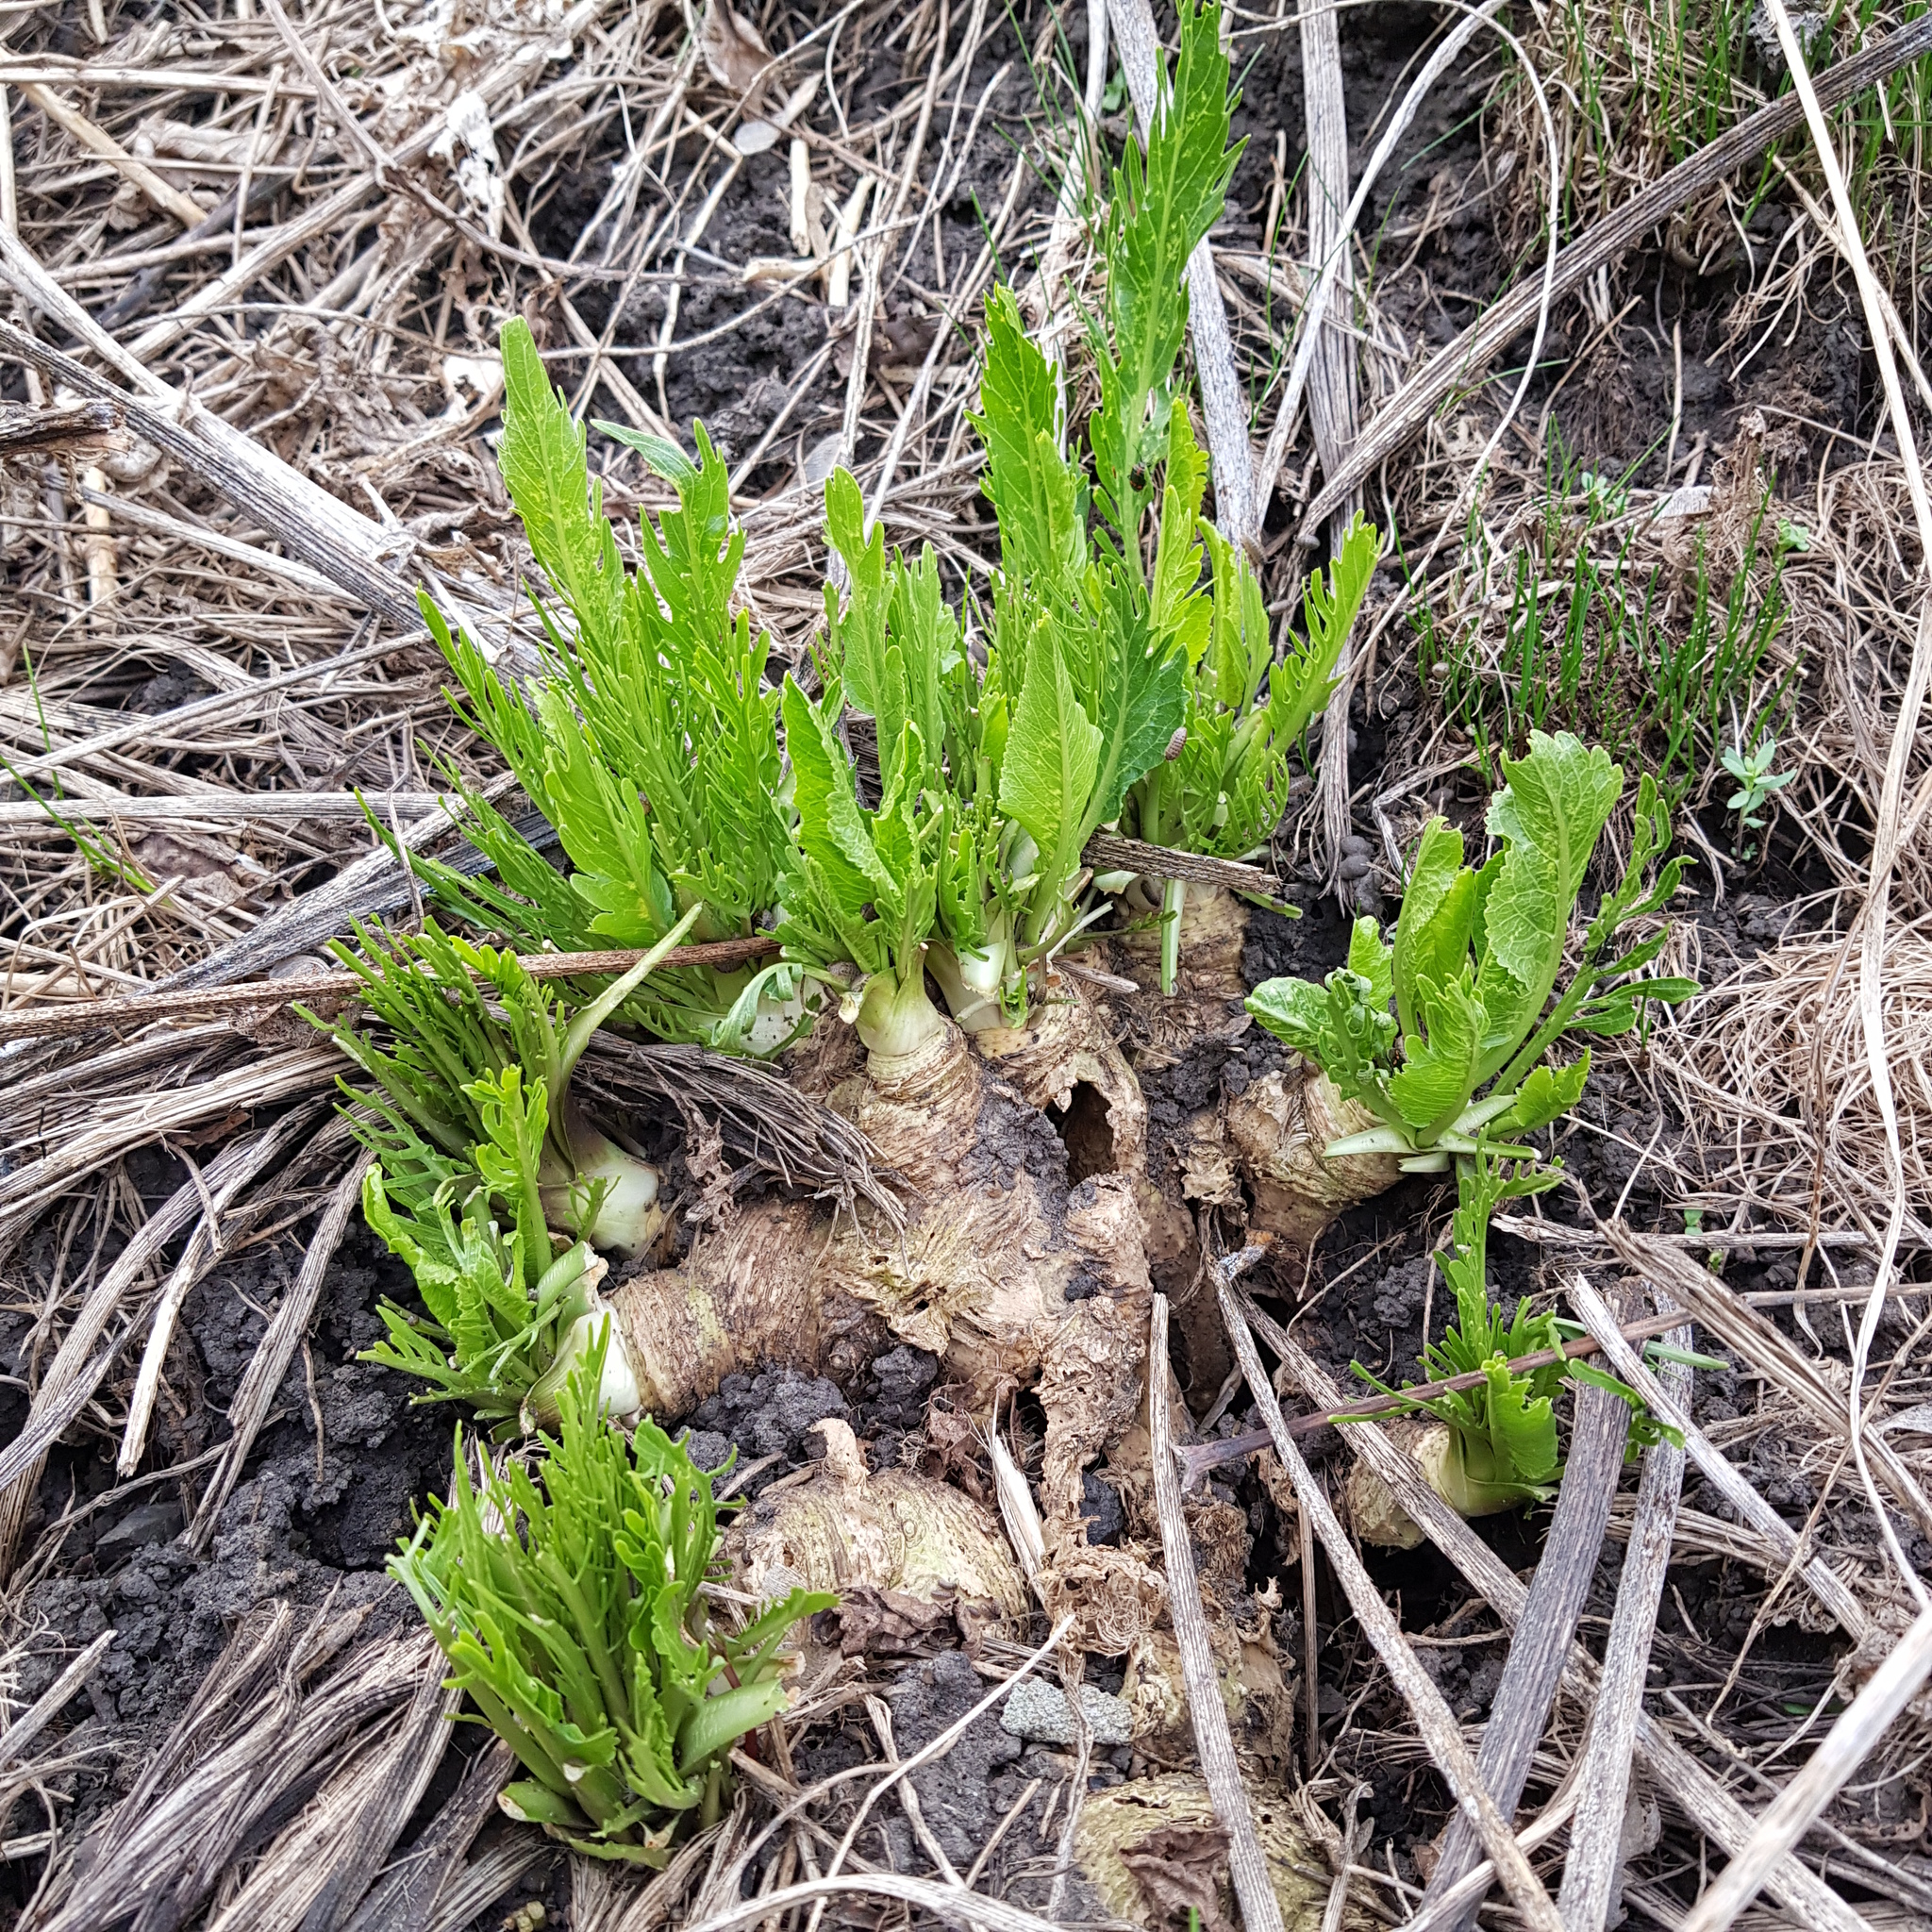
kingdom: Plantae
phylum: Tracheophyta
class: Magnoliopsida
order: Brassicales
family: Brassicaceae
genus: Armoracia
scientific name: Armoracia rusticana
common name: Horseradish
